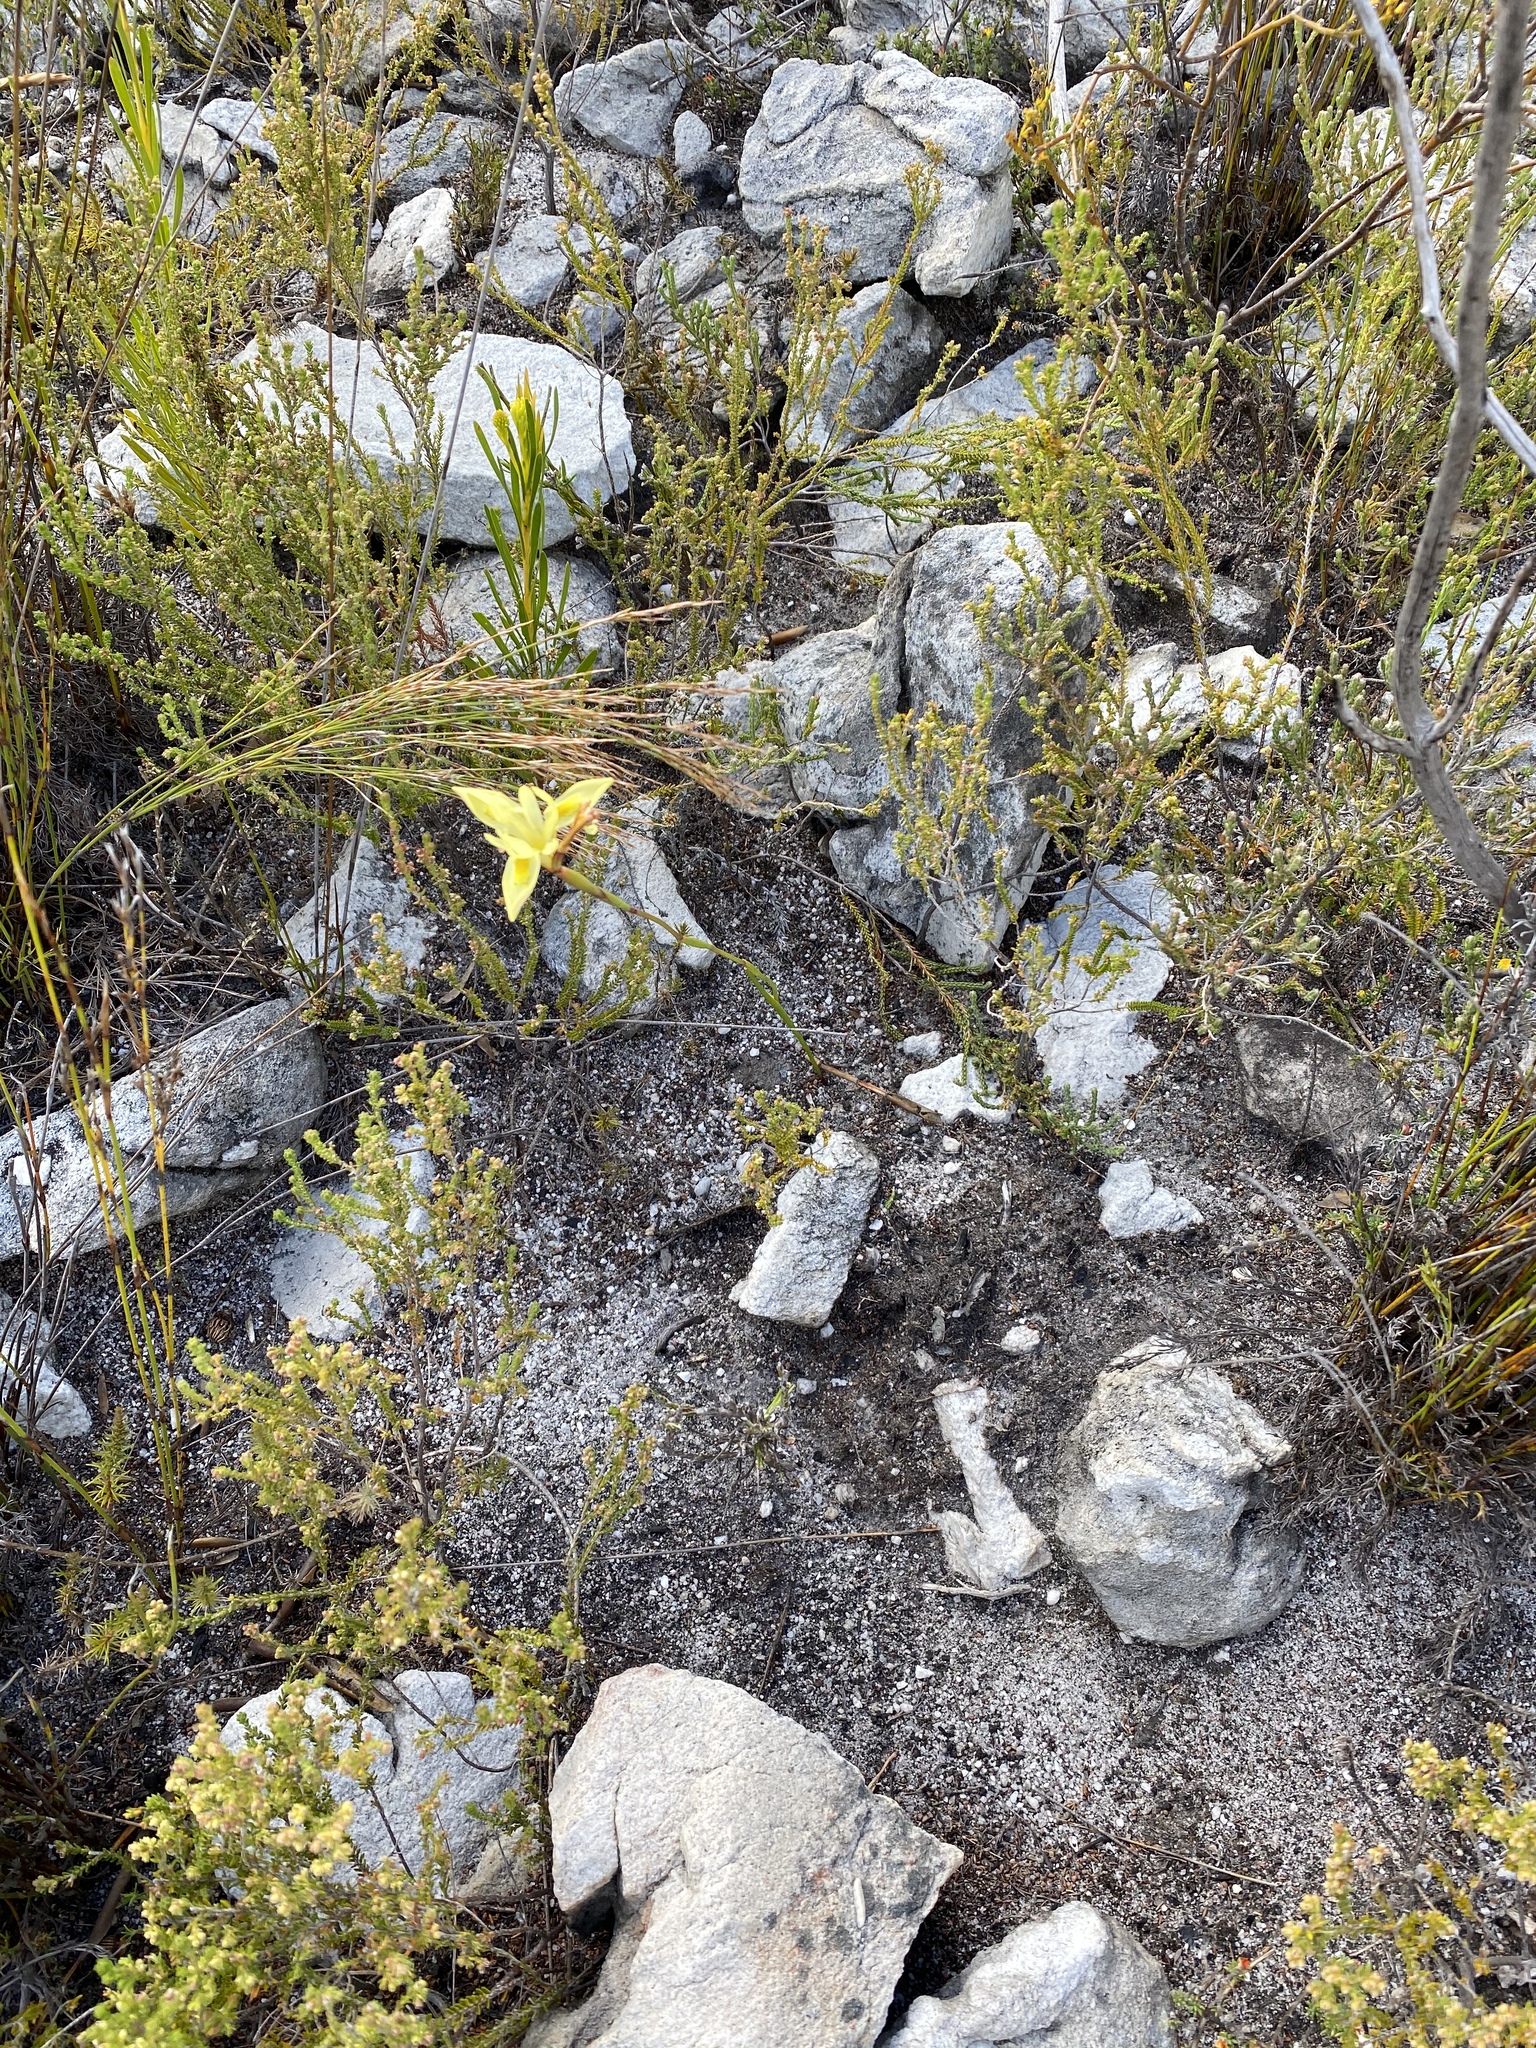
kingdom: Plantae
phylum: Tracheophyta
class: Liliopsida
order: Asparagales
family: Iridaceae
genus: Moraea
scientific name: Moraea neglecta
